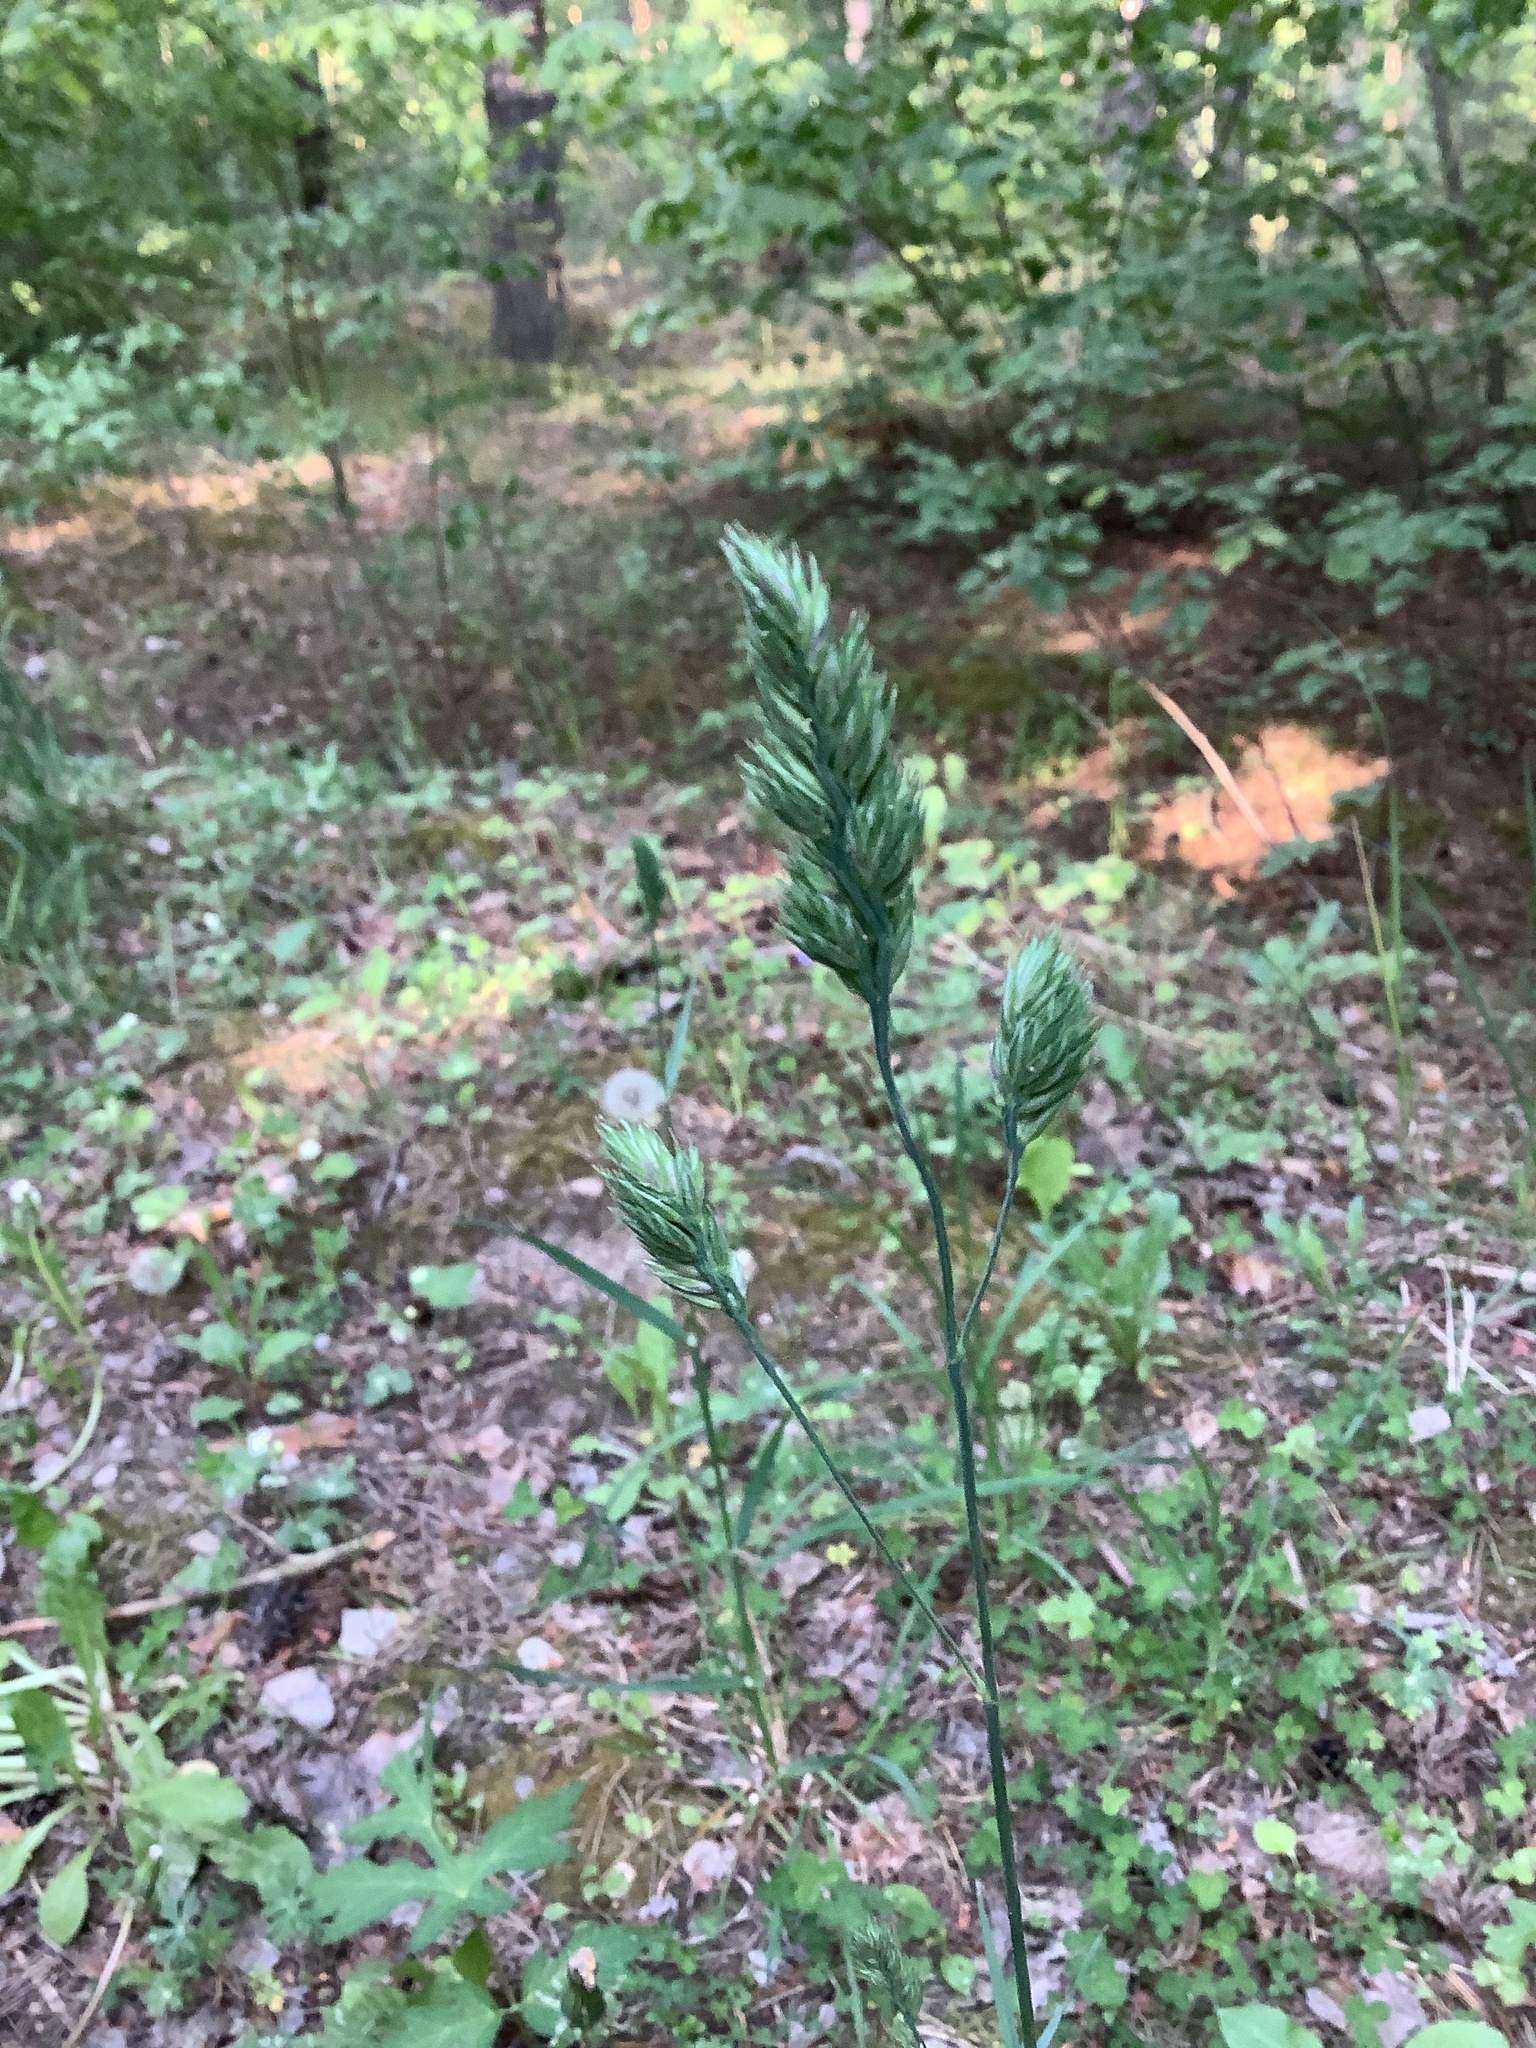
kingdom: Plantae
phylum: Tracheophyta
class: Liliopsida
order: Poales
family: Poaceae
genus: Dactylis
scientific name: Dactylis glomerata
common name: Orchardgrass
